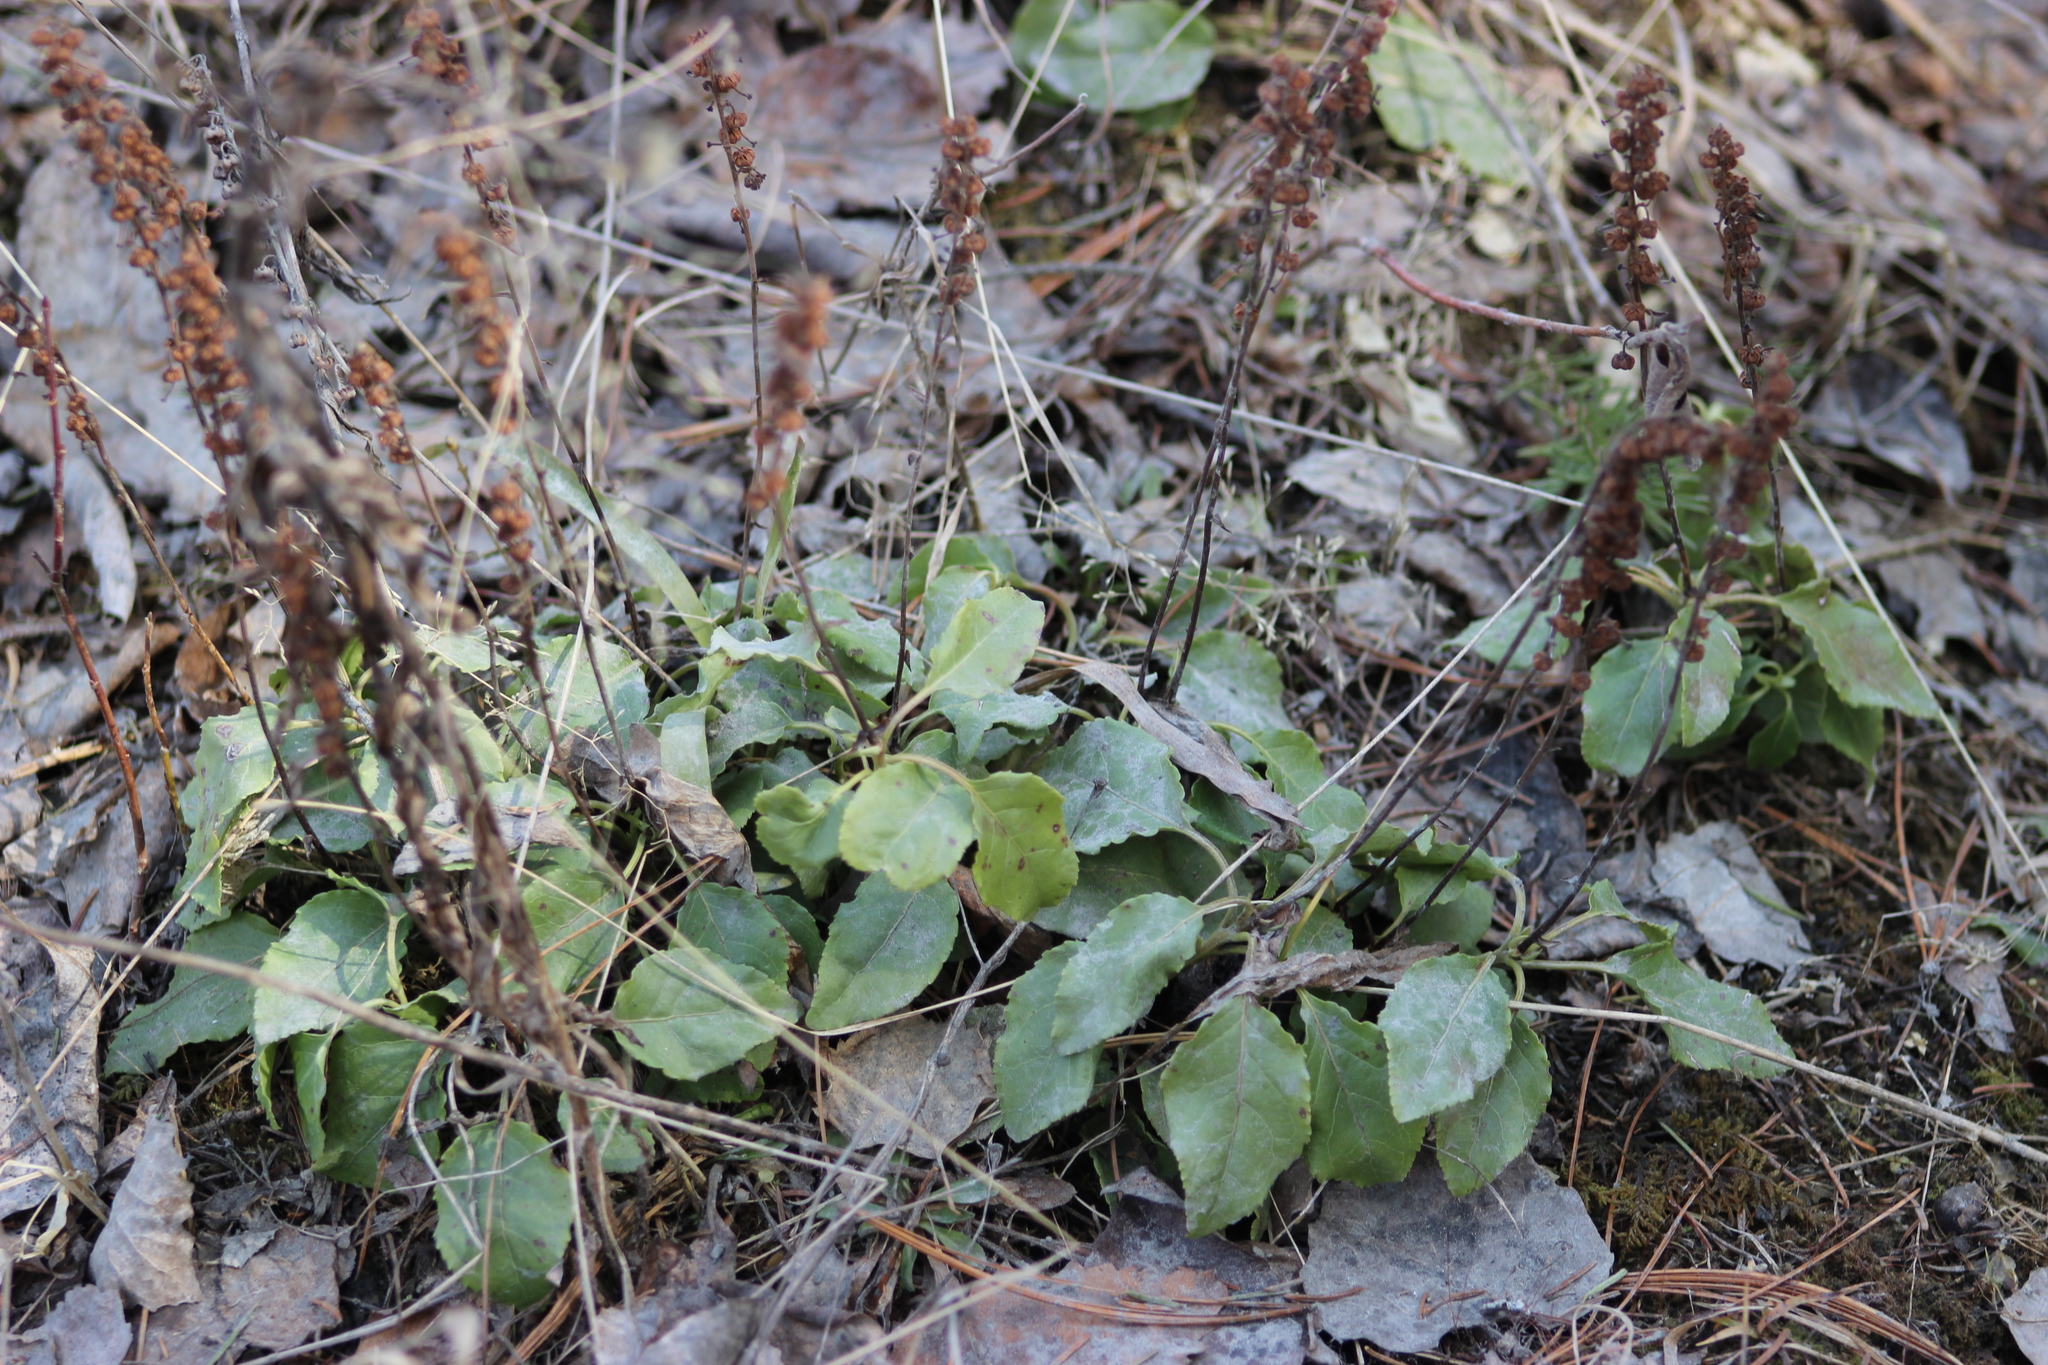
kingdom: Plantae
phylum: Tracheophyta
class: Magnoliopsida
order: Ericales
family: Ericaceae
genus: Orthilia
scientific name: Orthilia secunda
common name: One-sided orthilia
